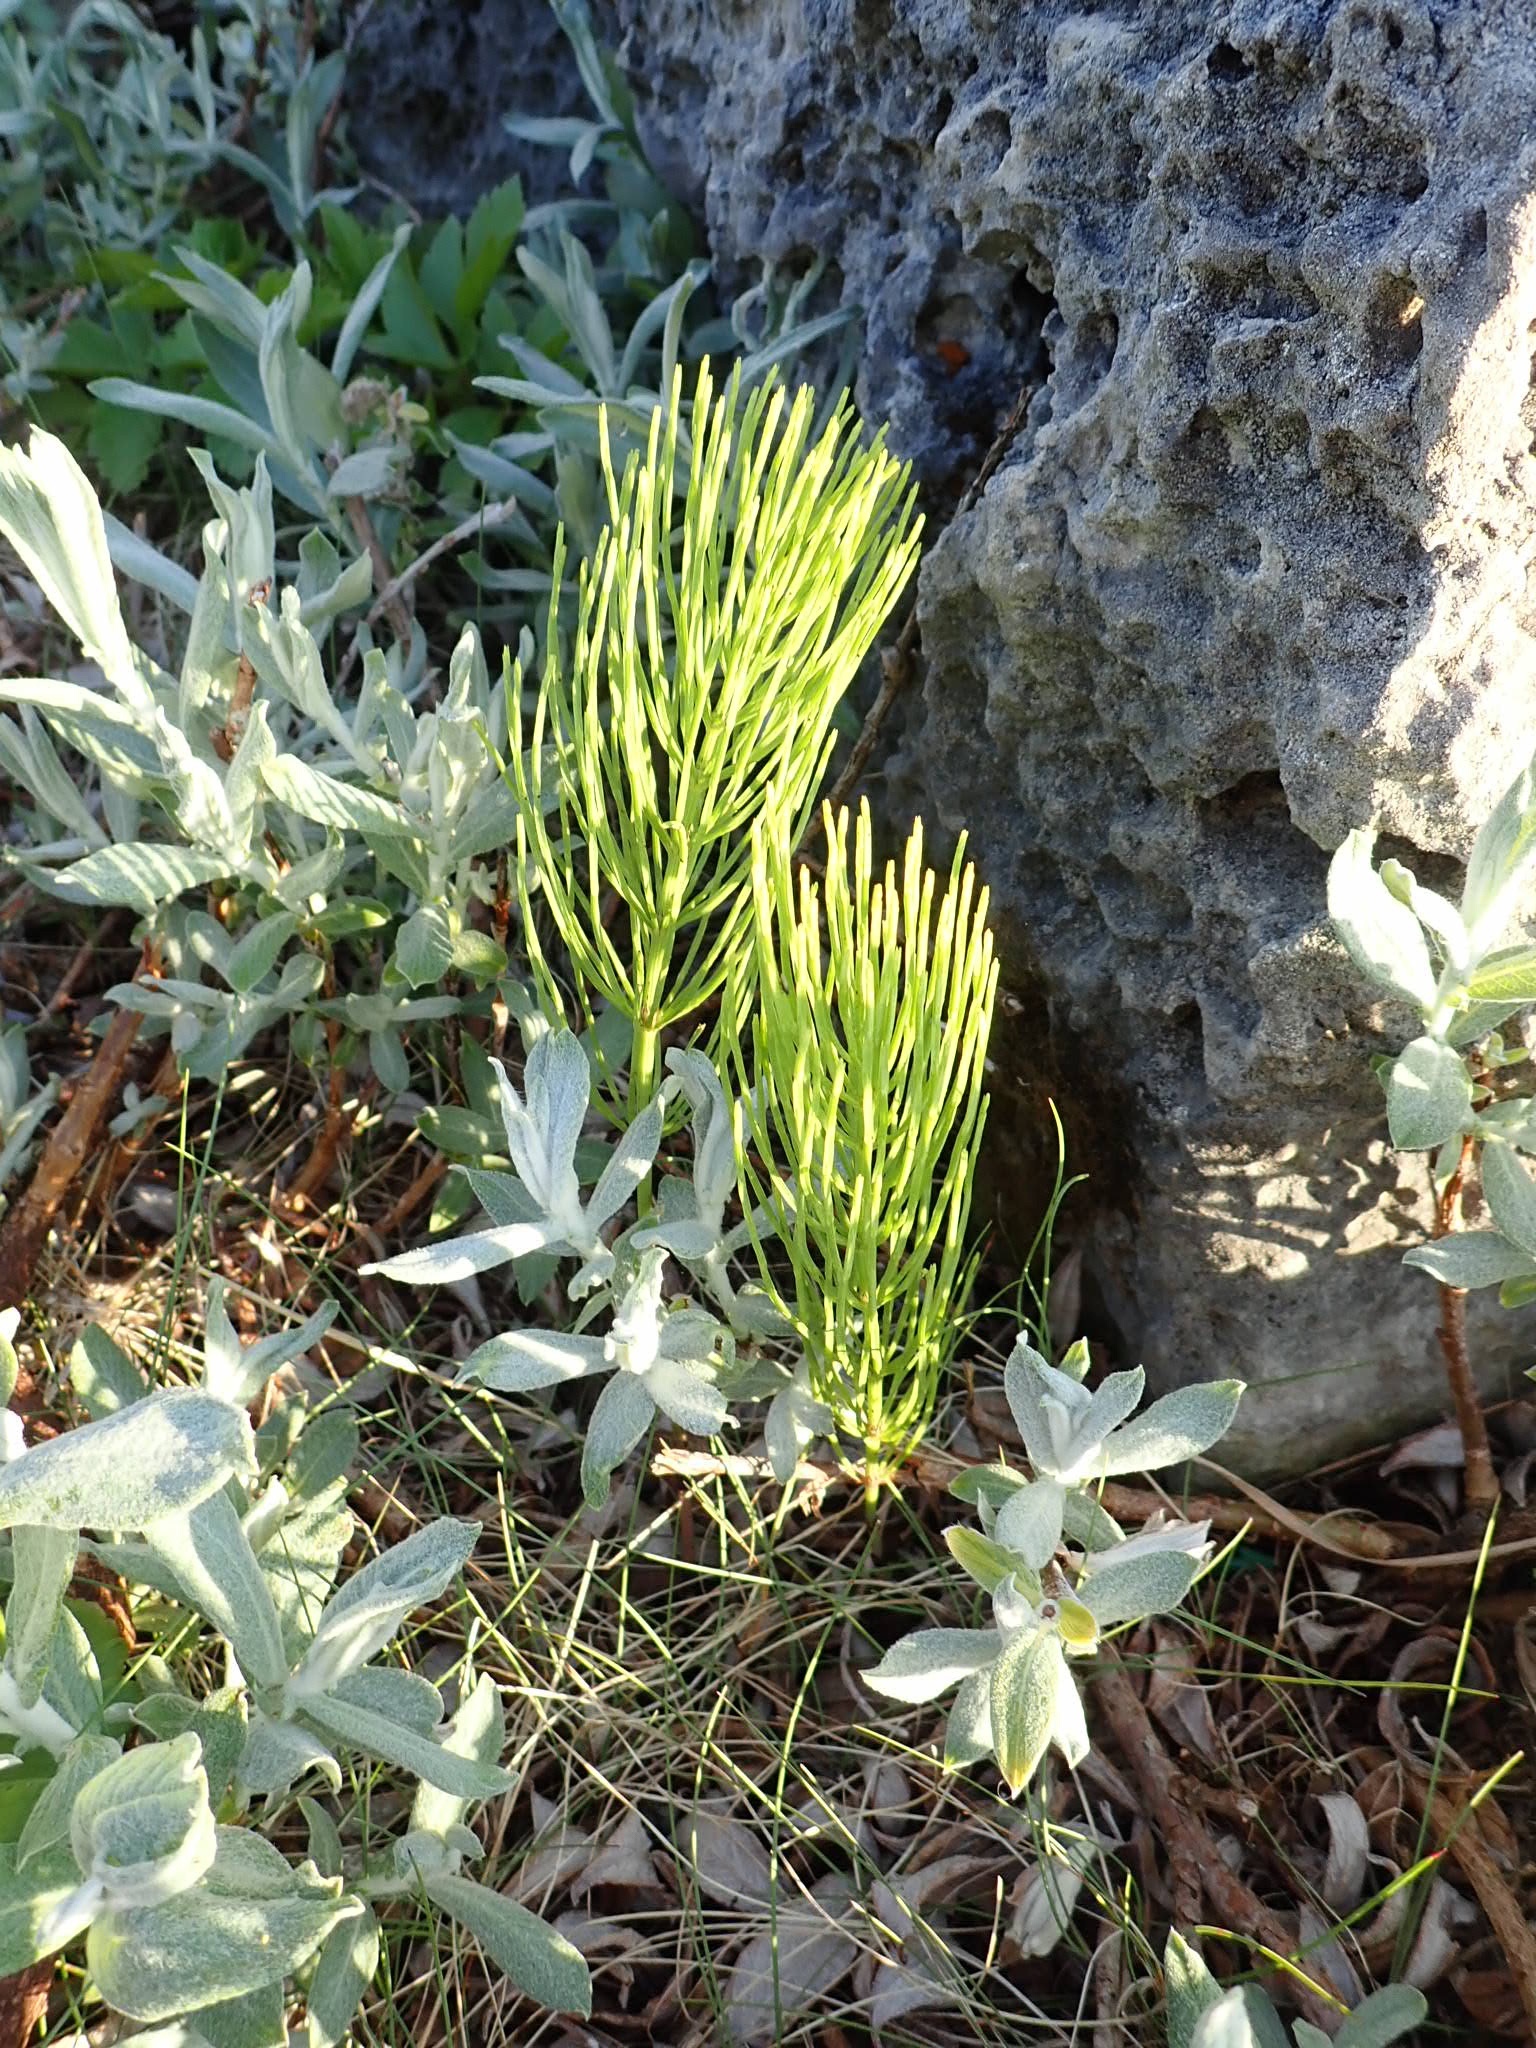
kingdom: Plantae
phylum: Tracheophyta
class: Polypodiopsida
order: Equisetales
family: Equisetaceae
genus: Equisetum
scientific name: Equisetum arvense
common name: Field horsetail
